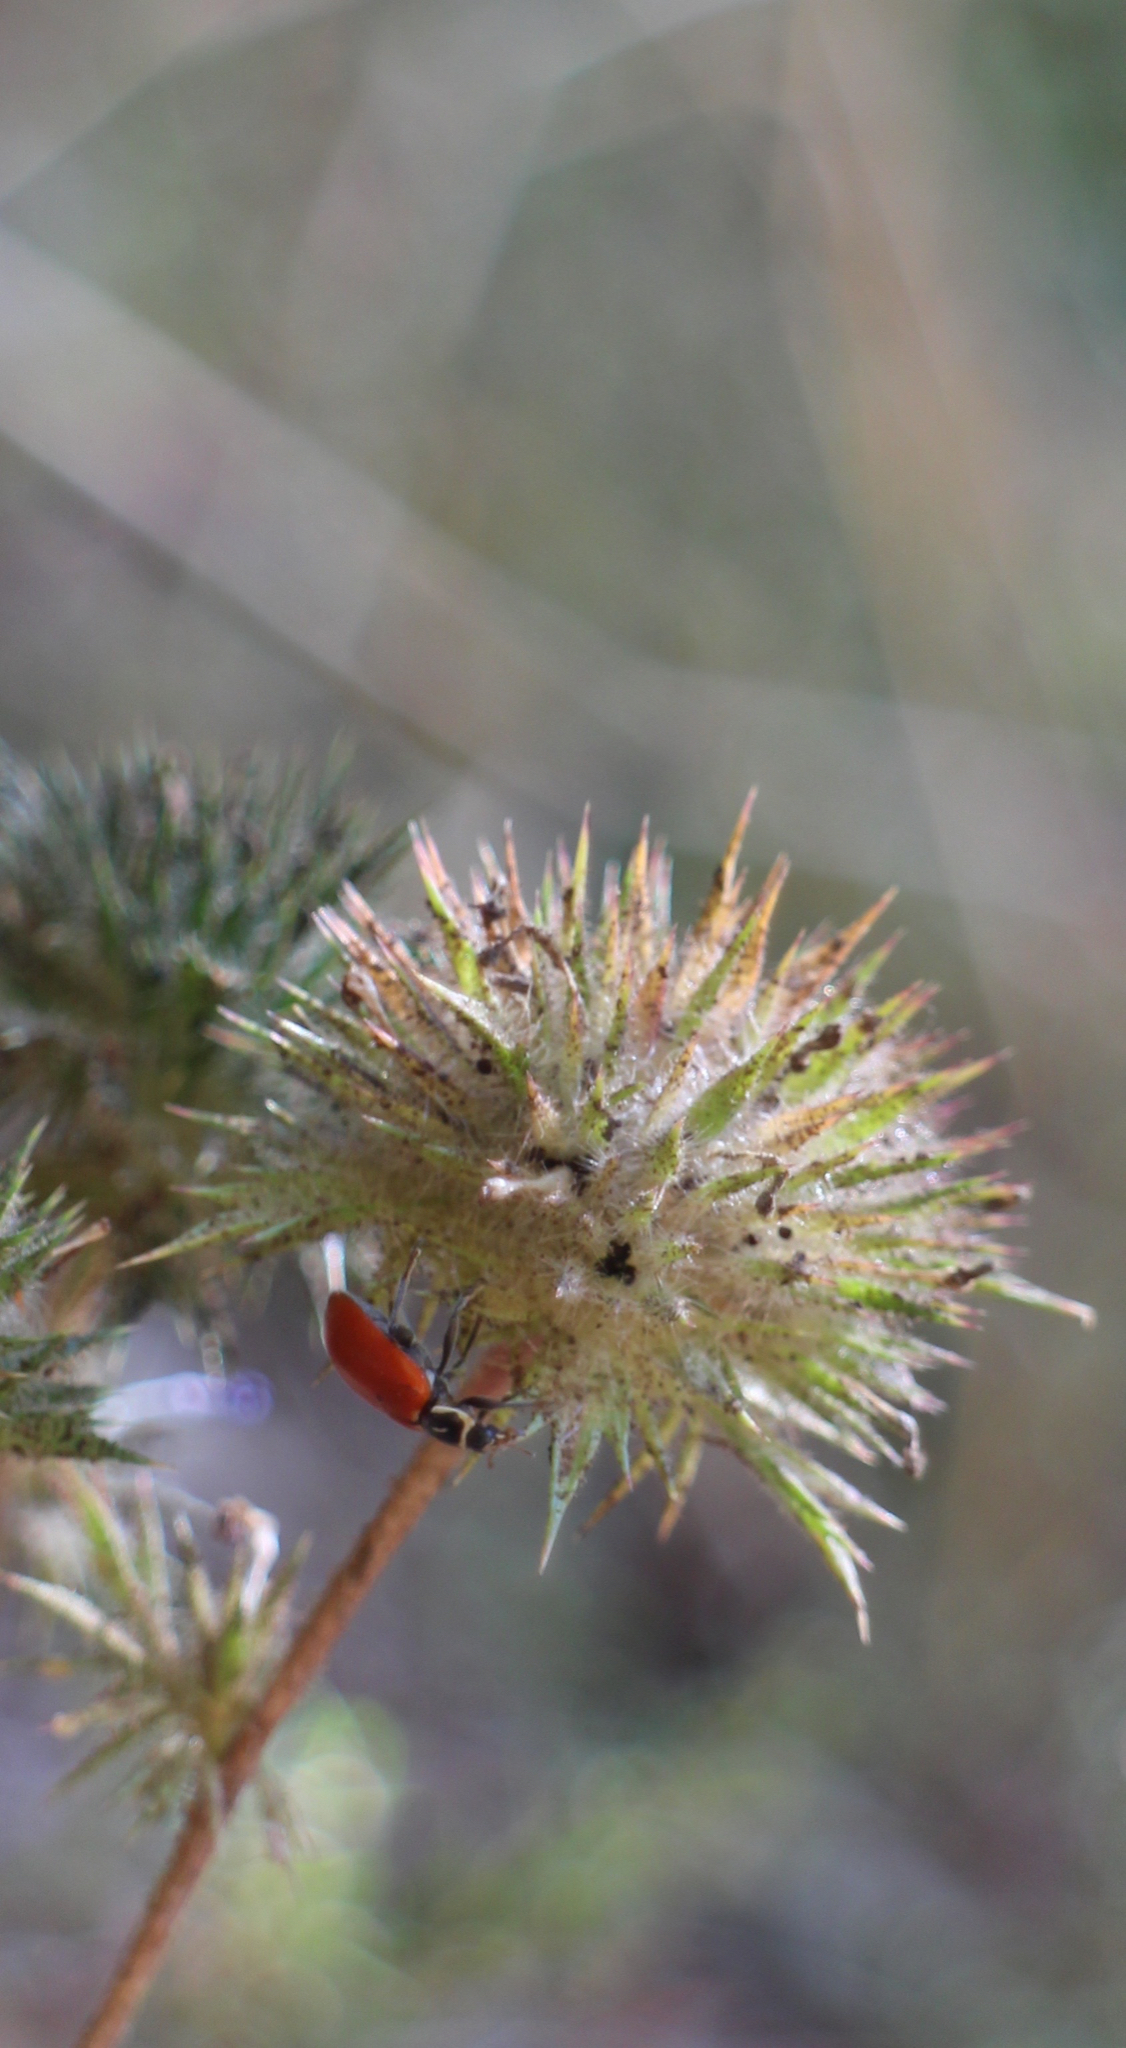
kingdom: Animalia
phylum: Arthropoda
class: Insecta
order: Coleoptera
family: Coccinellidae
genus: Hippodamia
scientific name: Hippodamia convergens
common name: Convergent lady beetle
